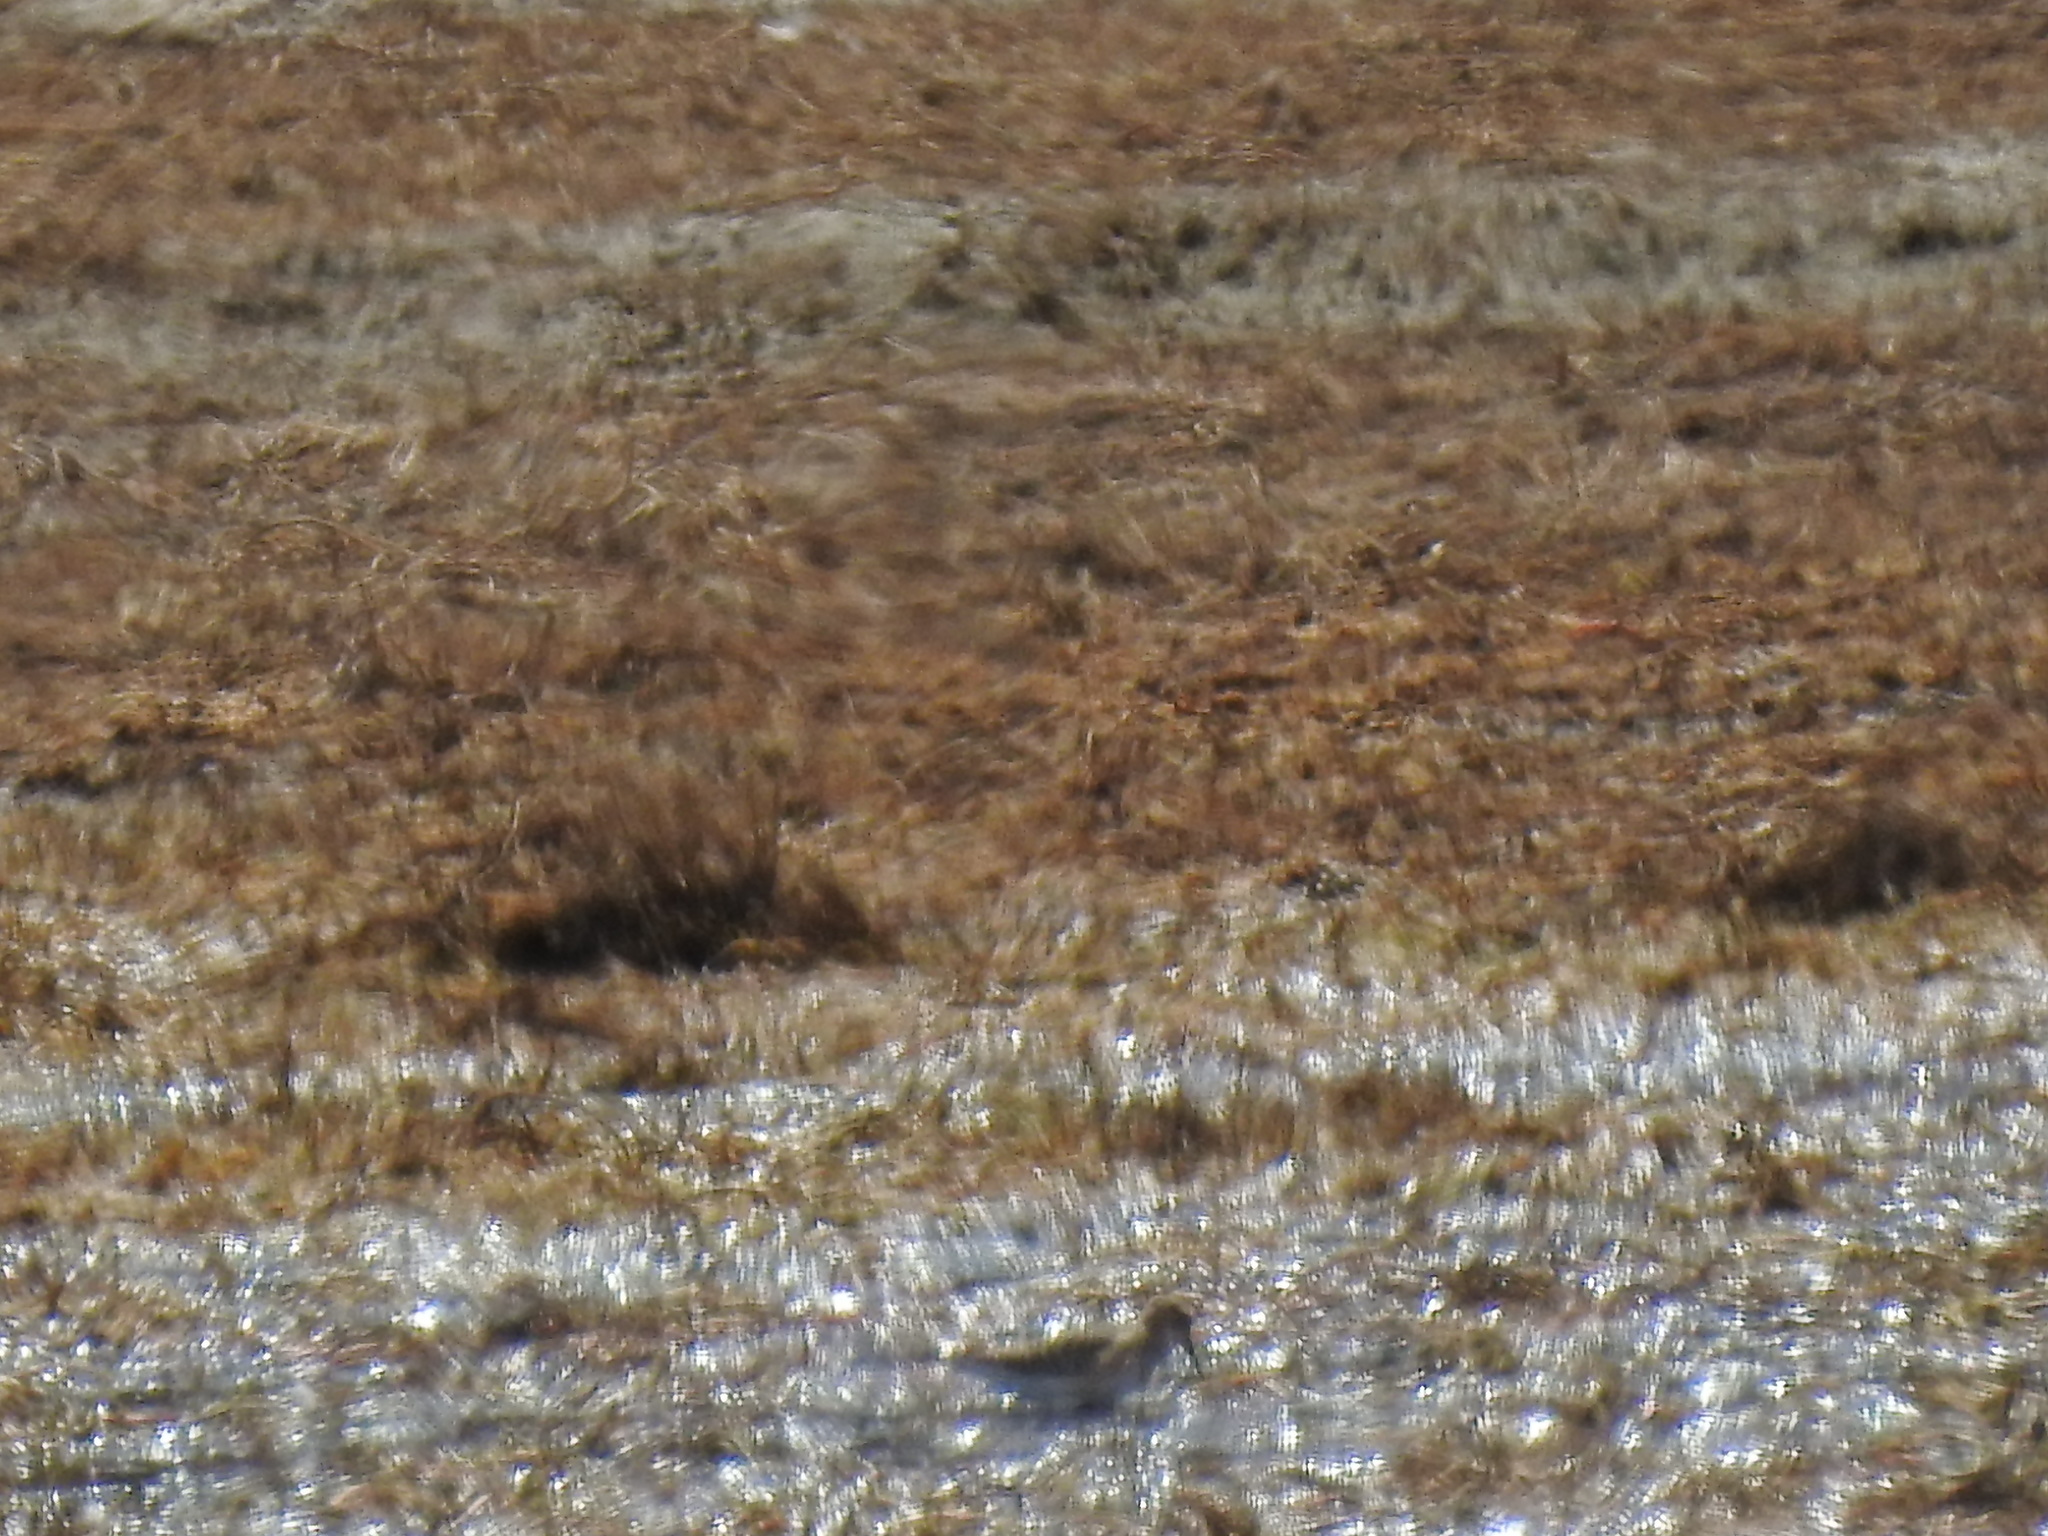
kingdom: Animalia
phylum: Chordata
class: Aves
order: Charadriiformes
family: Scolopacidae
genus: Calidris
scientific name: Calidris bairdii
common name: Baird's sandpiper
